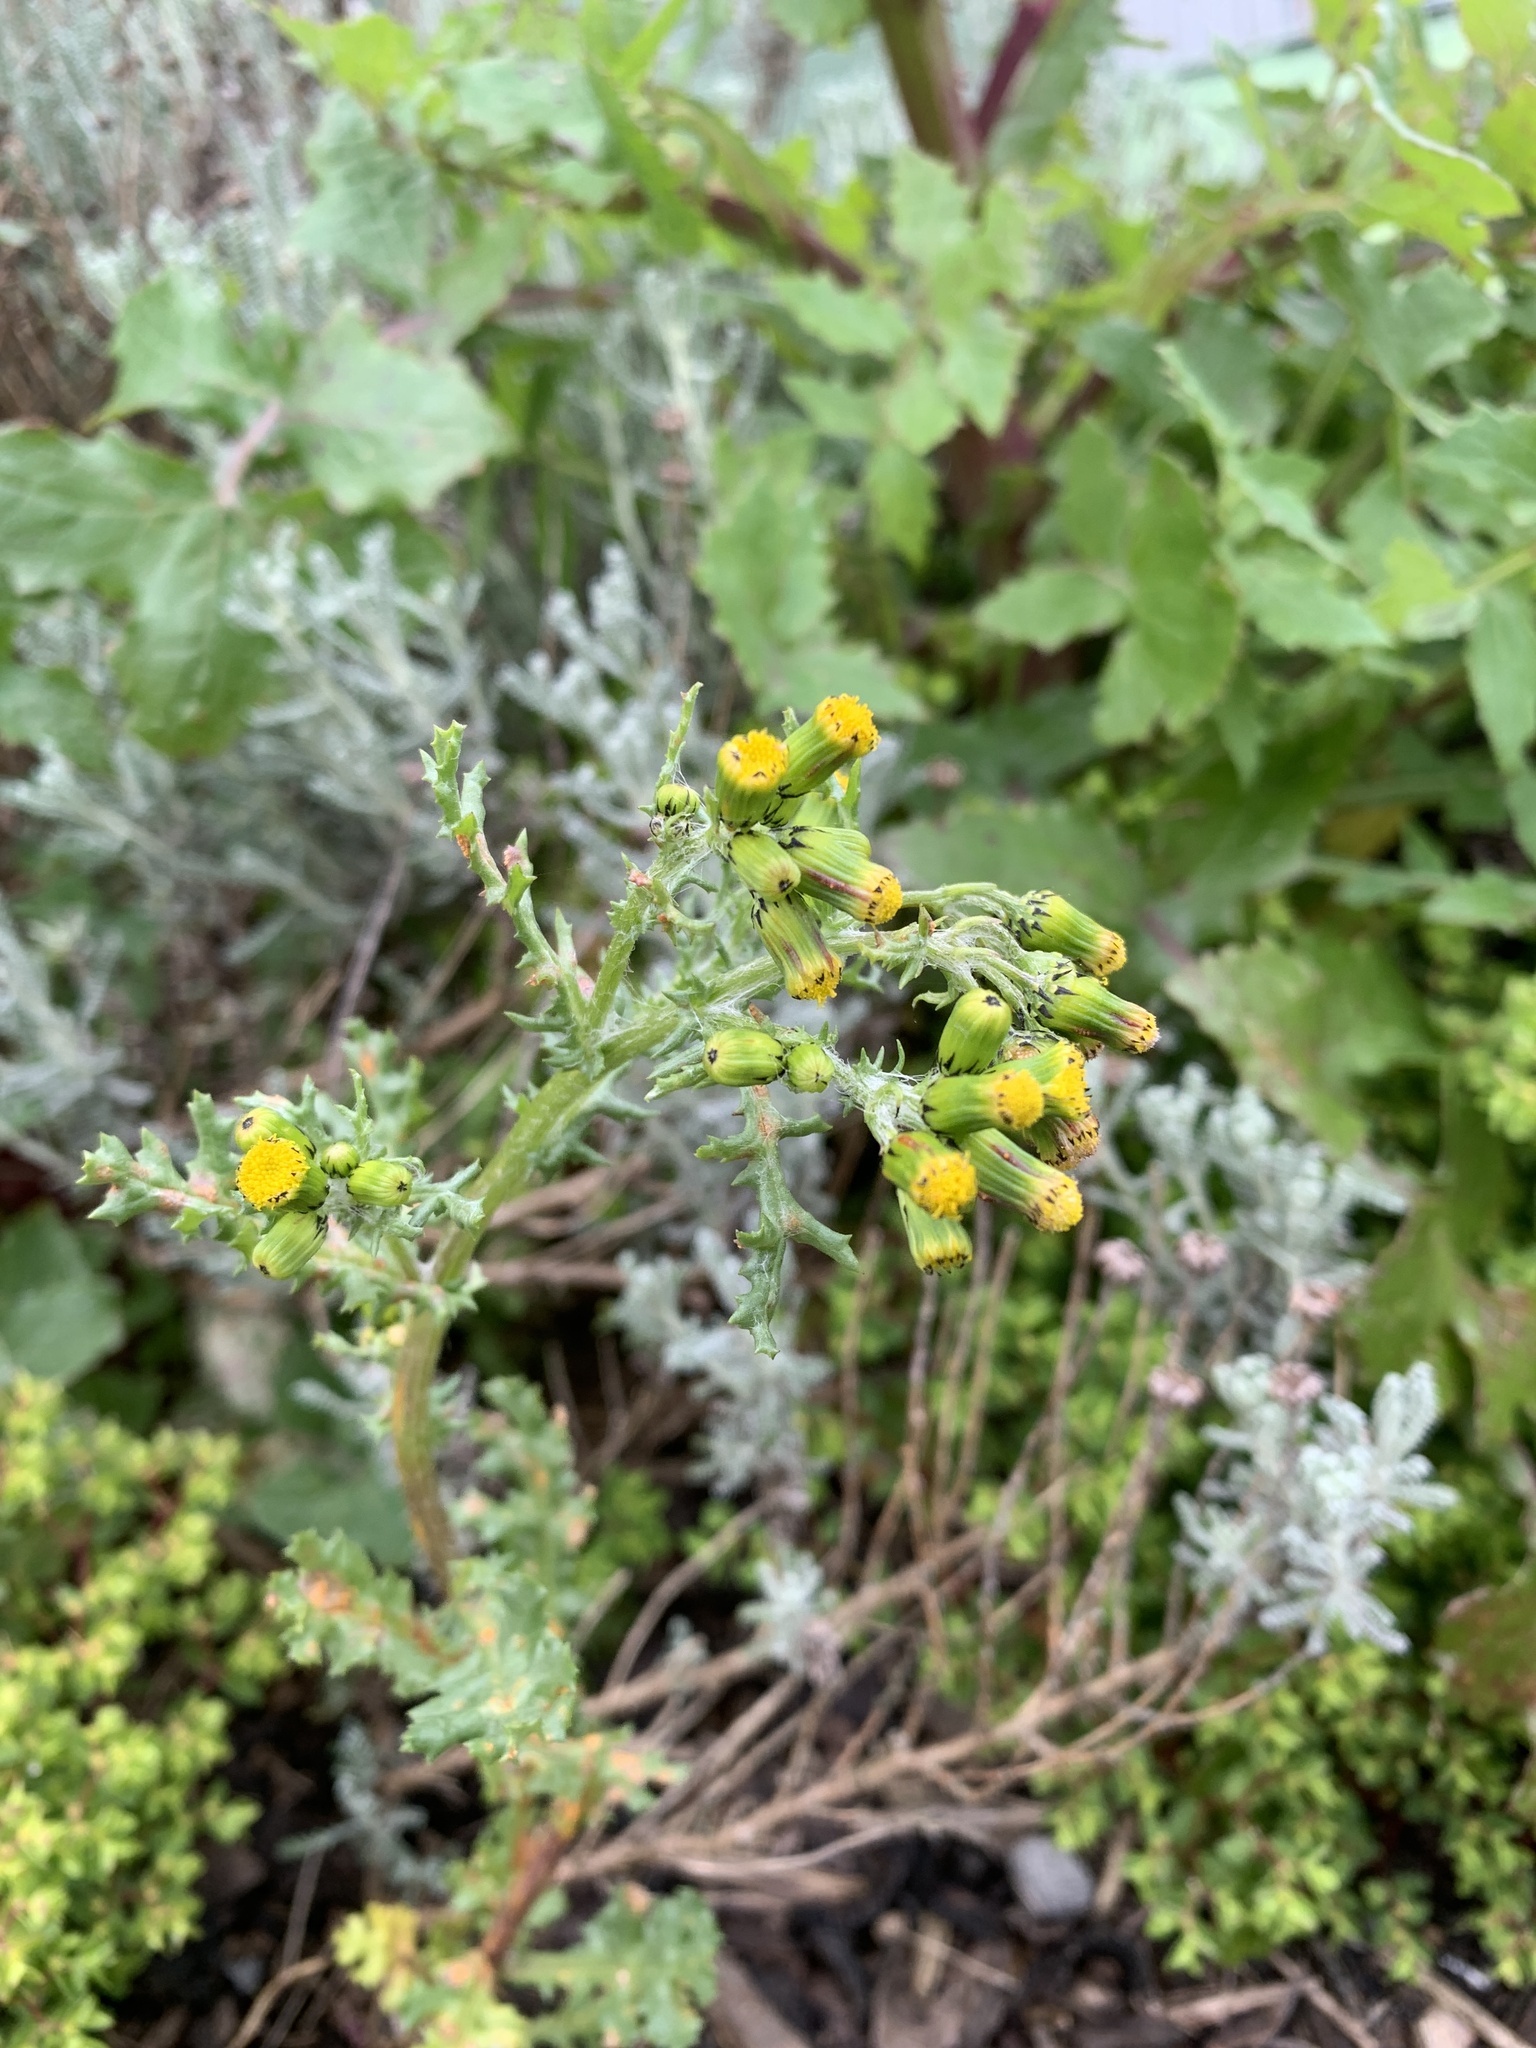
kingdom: Plantae
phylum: Tracheophyta
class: Magnoliopsida
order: Asterales
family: Asteraceae
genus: Senecio
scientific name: Senecio vulgaris
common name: Old-man-in-the-spring
